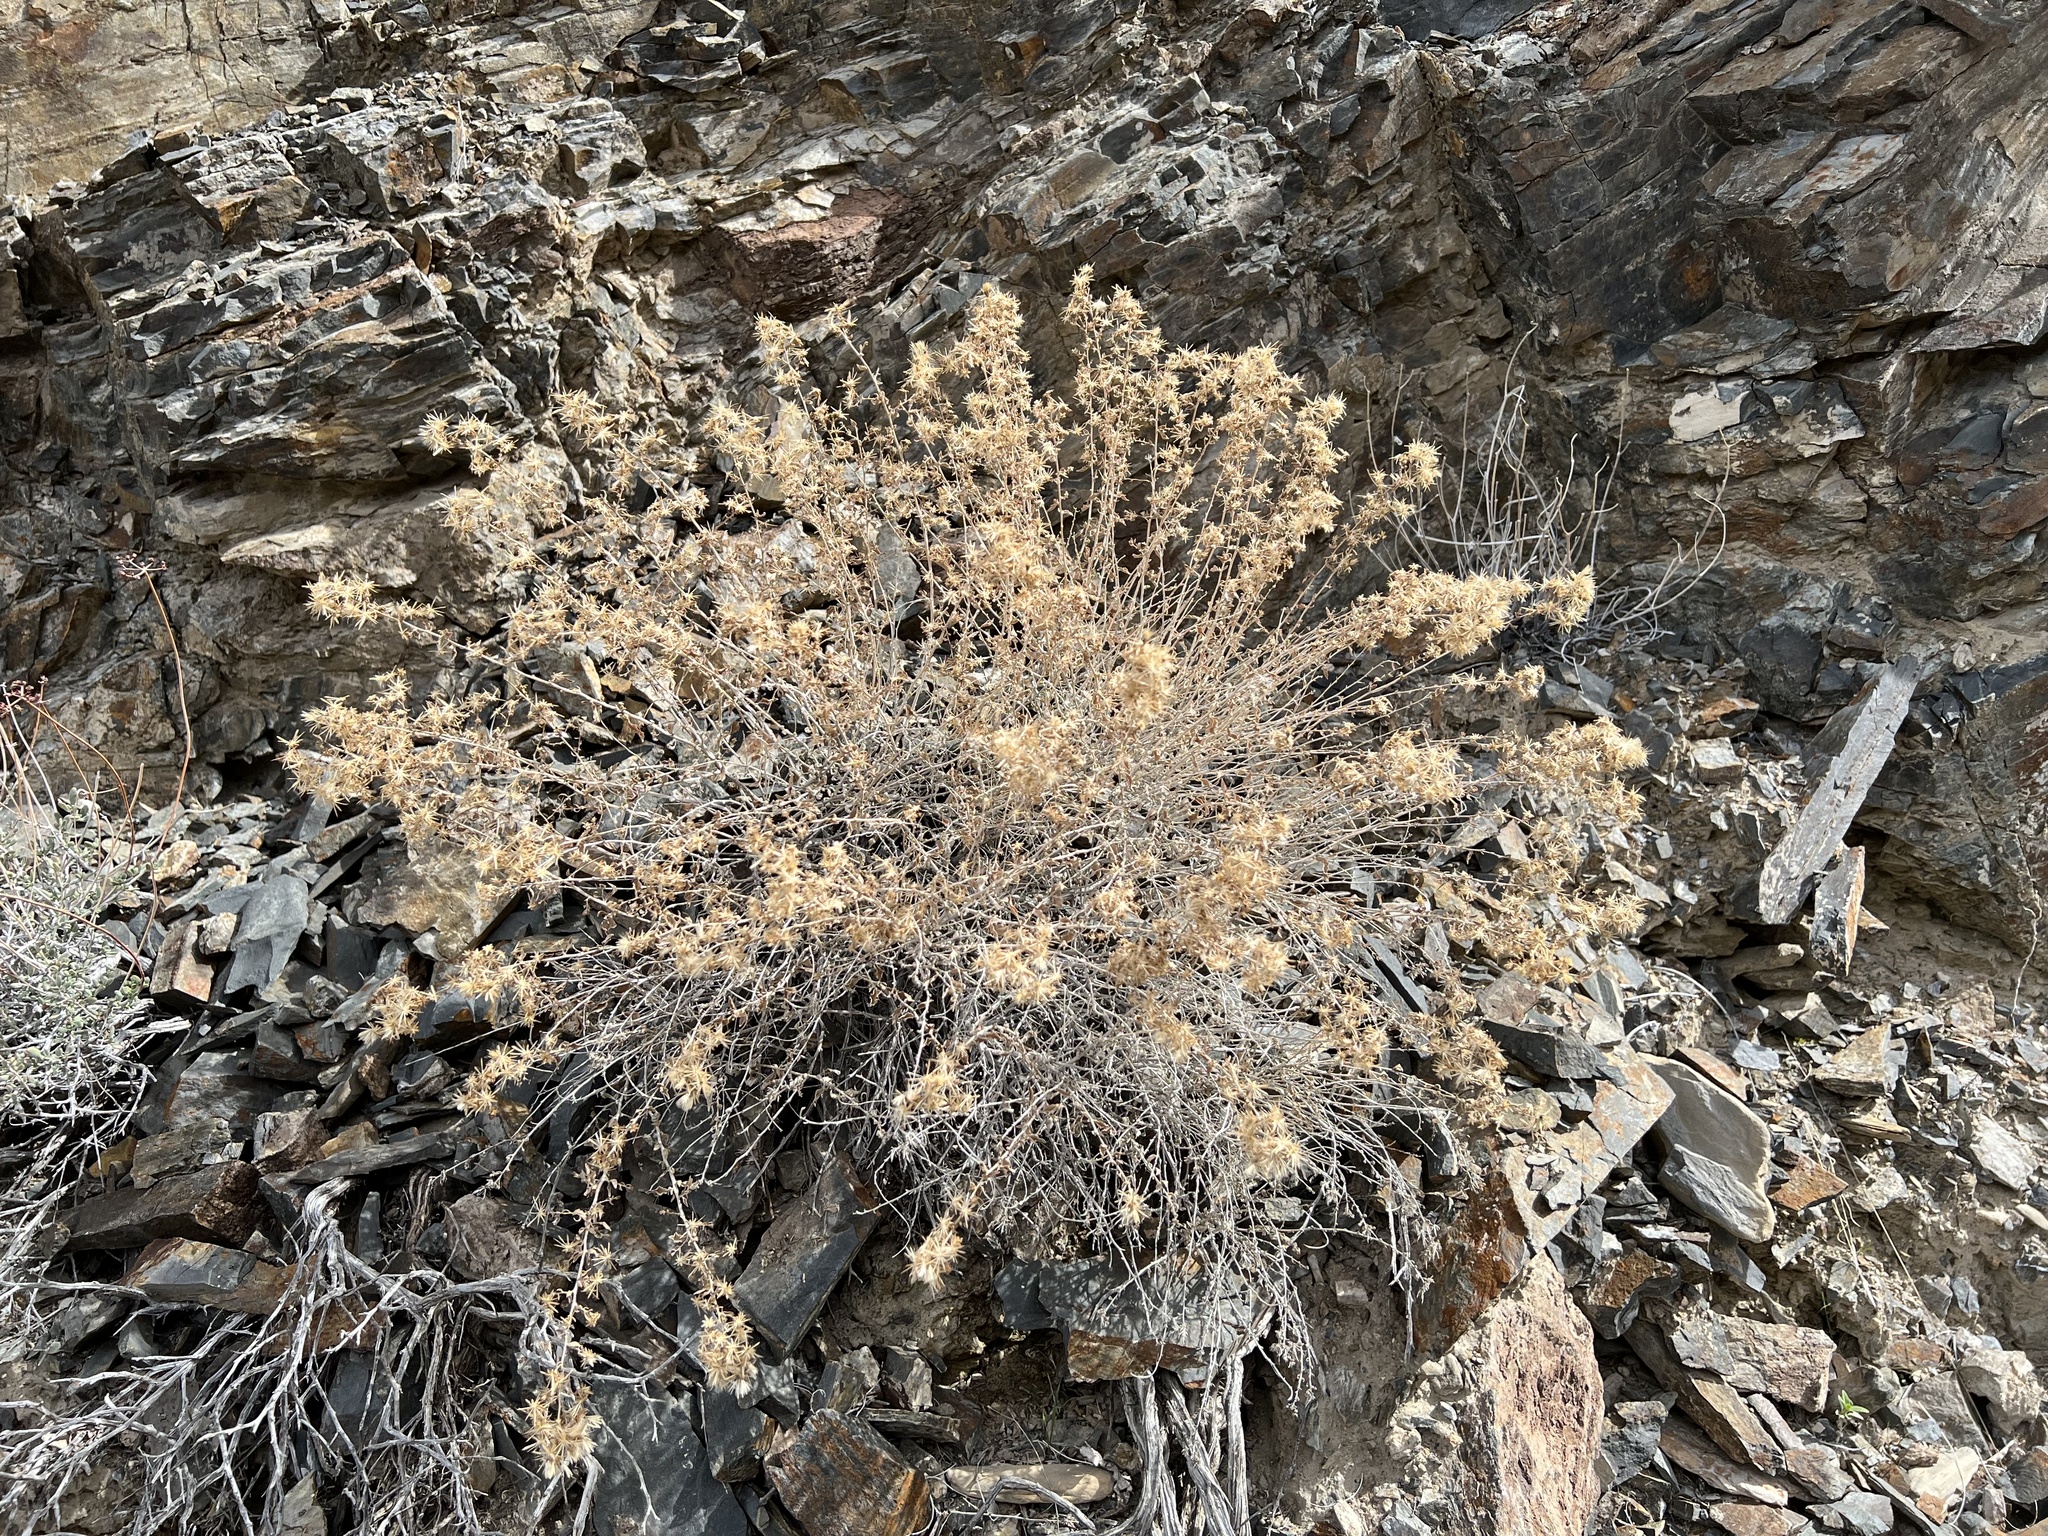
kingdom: Plantae
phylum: Tracheophyta
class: Magnoliopsida
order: Asterales
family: Asteraceae
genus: Brickellia
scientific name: Brickellia microphylla
